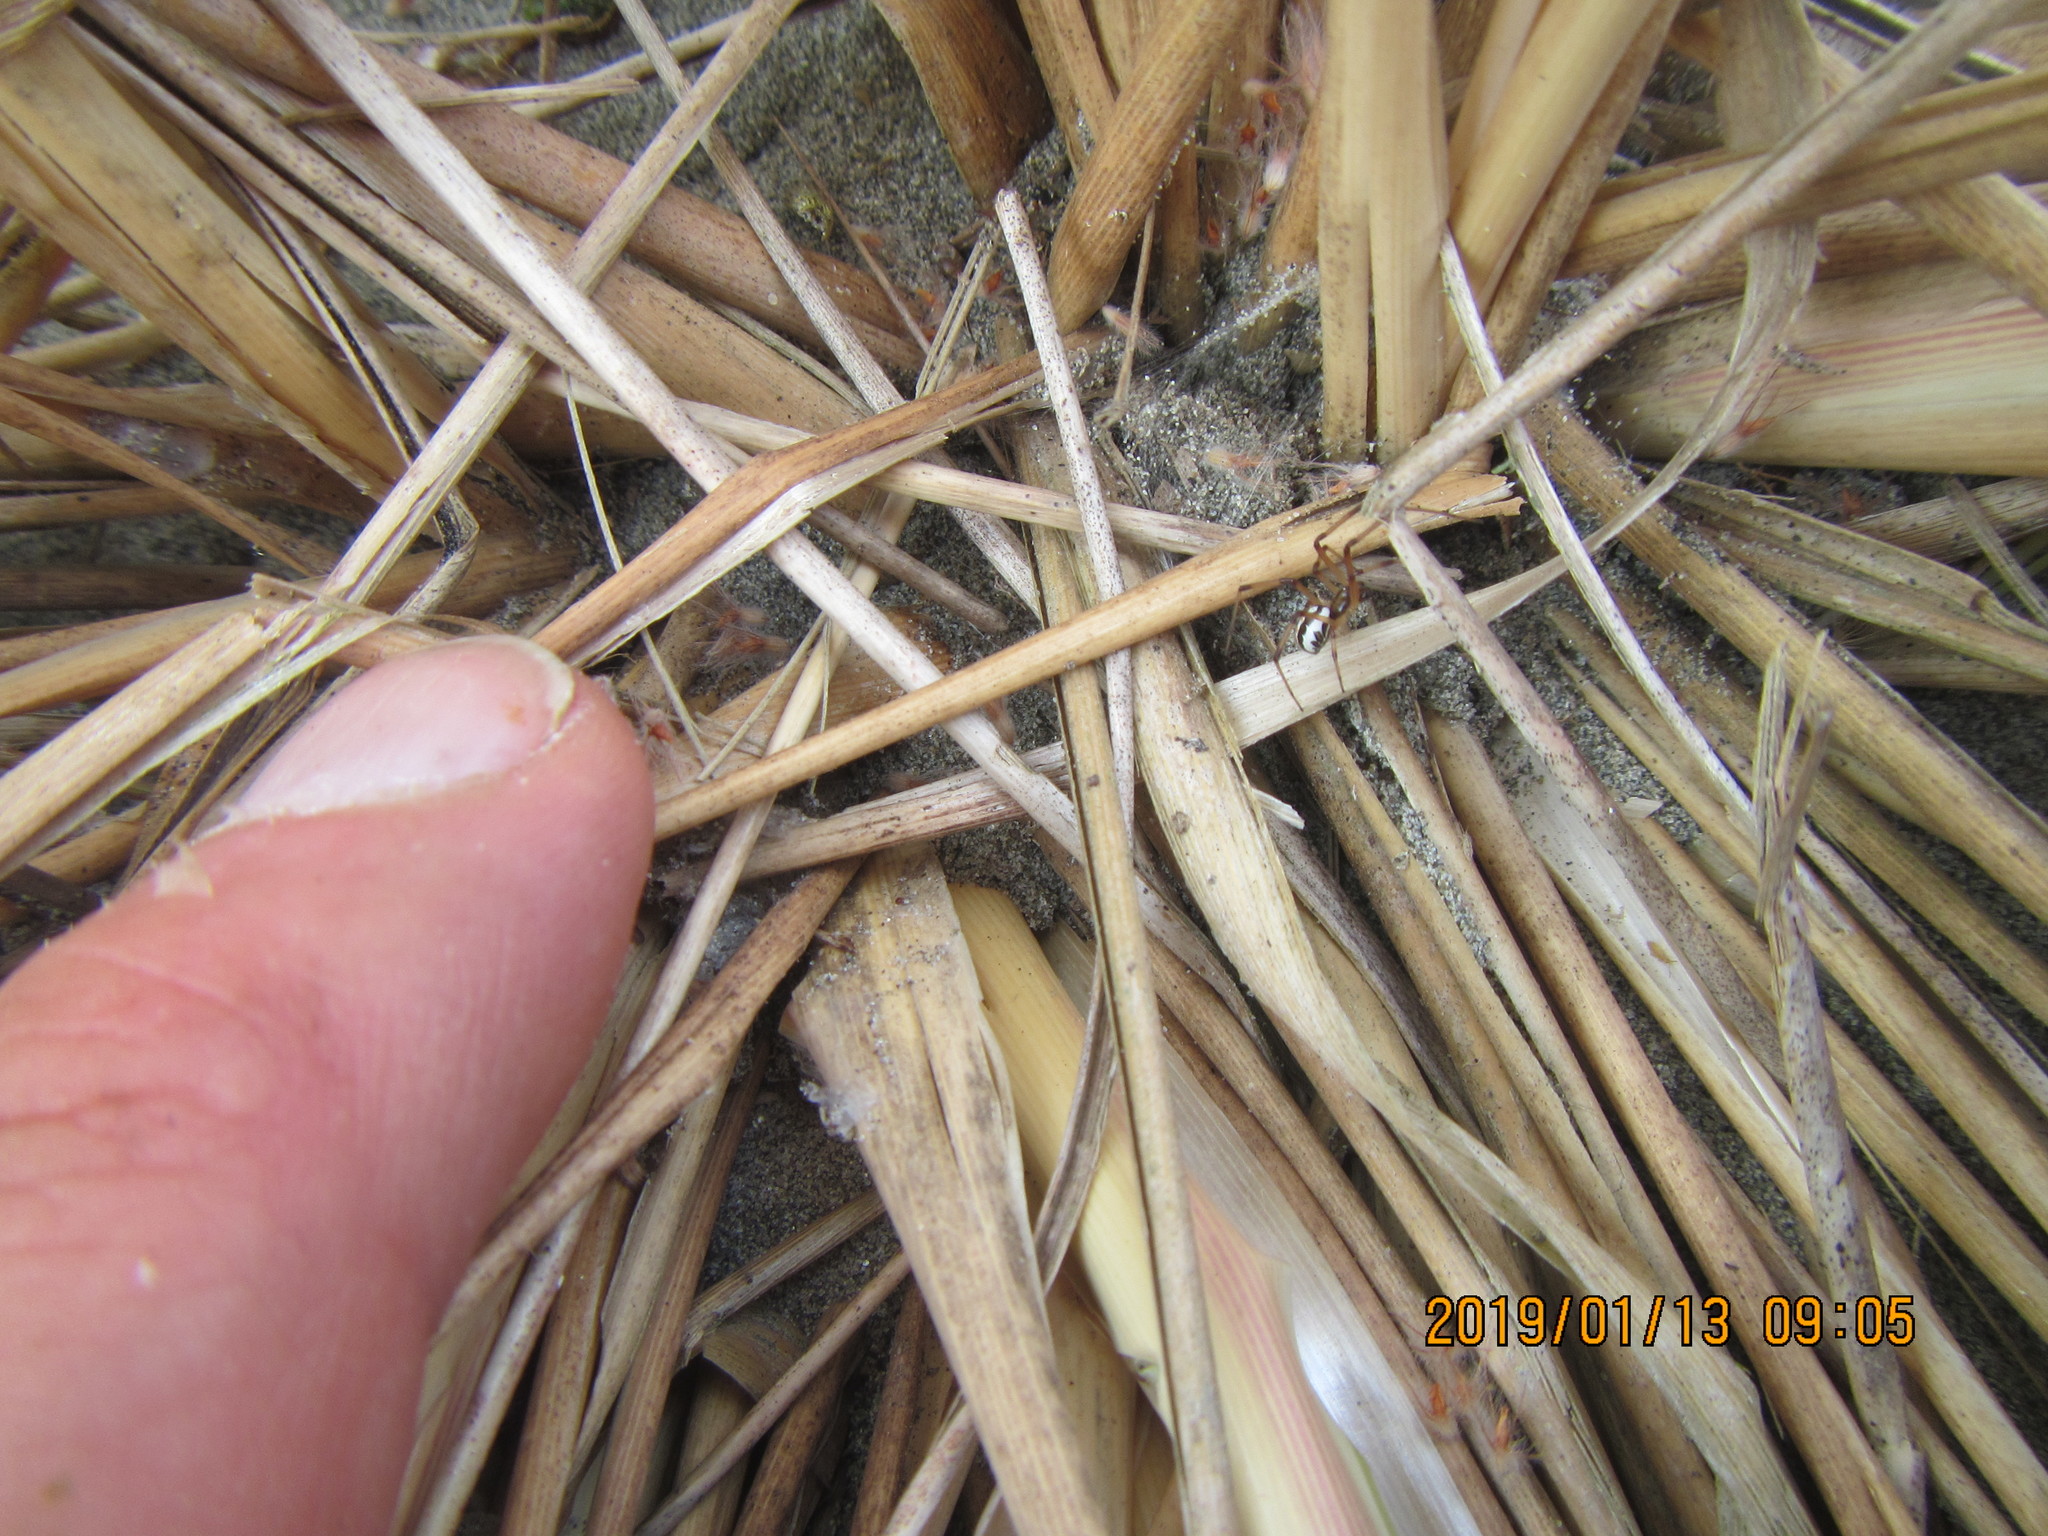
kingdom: Animalia
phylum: Arthropoda
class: Arachnida
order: Araneae
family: Theridiidae
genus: Latrodectus
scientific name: Latrodectus katipo
